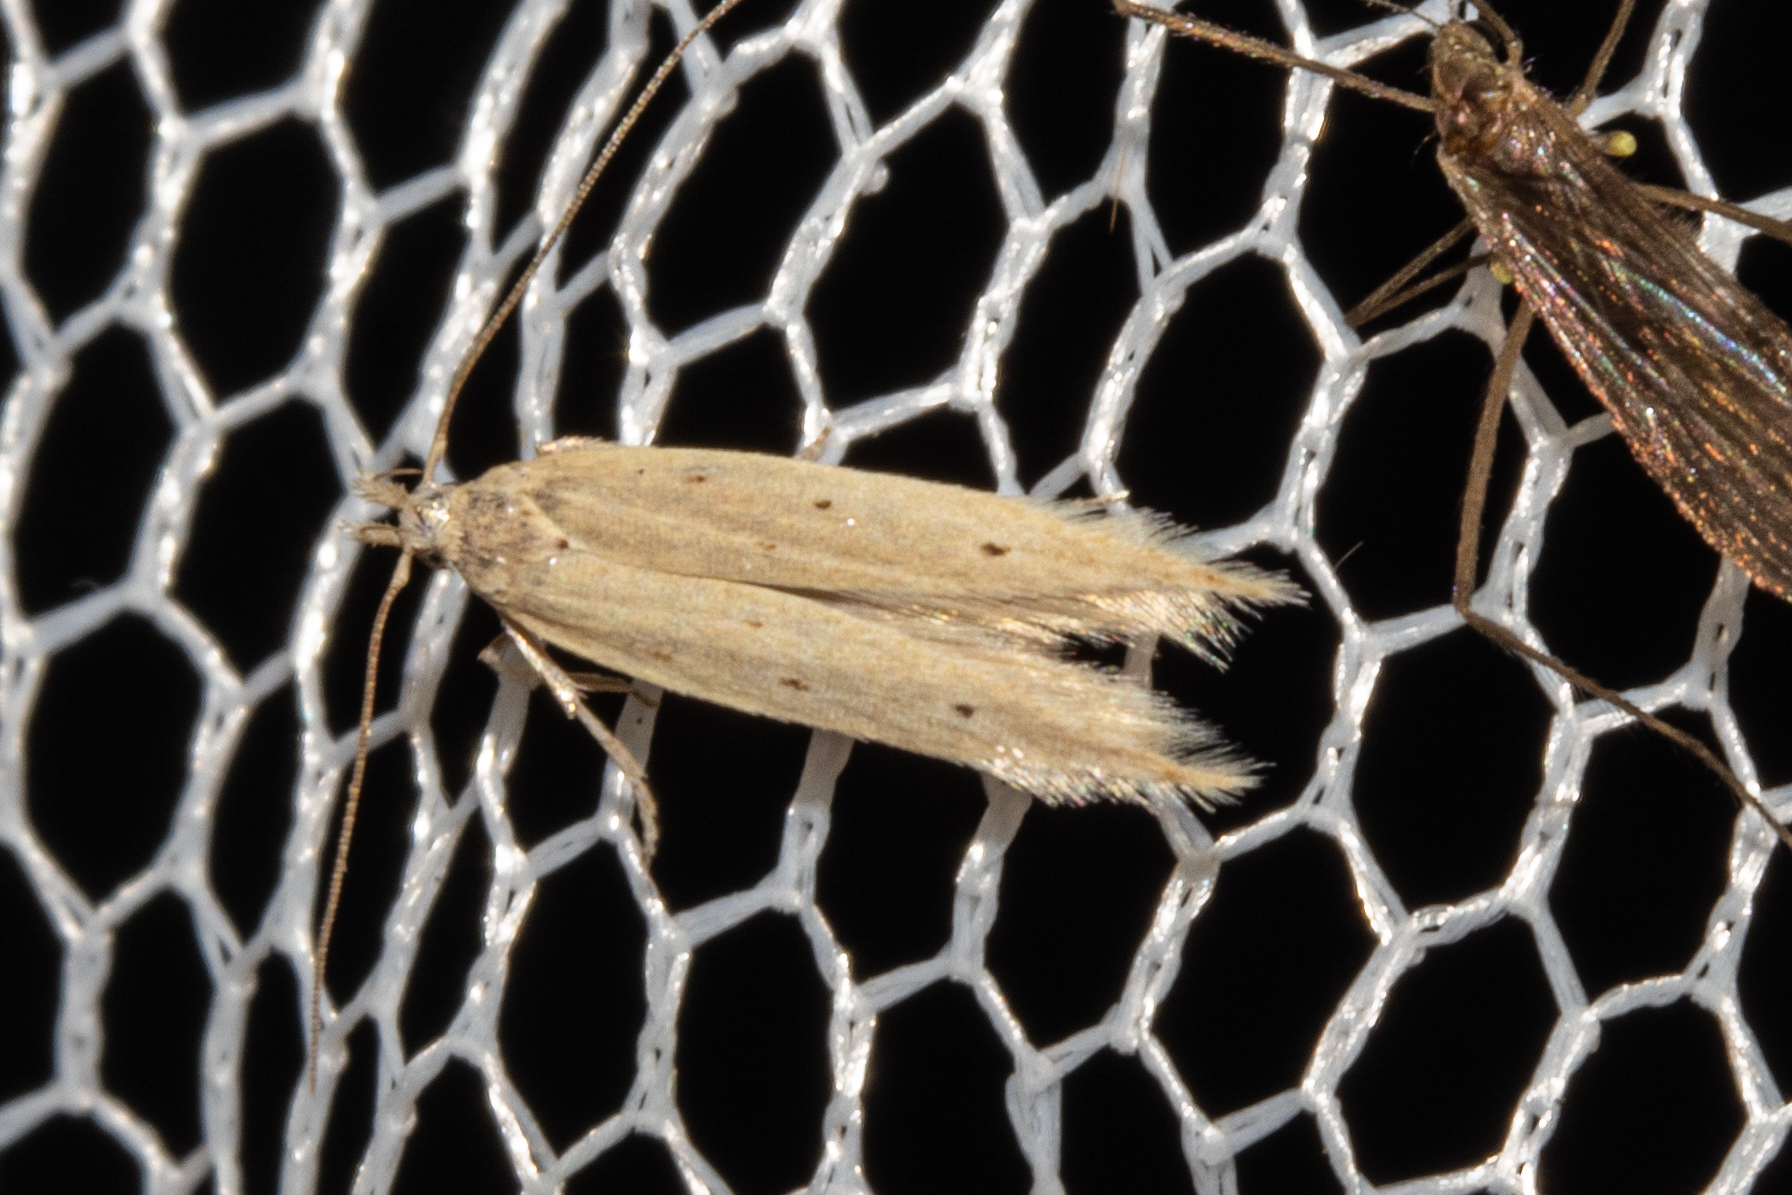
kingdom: Animalia
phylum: Arthropoda
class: Insecta
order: Lepidoptera
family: Gelechiidae
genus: Epiphthora
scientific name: Epiphthora calamogonus
